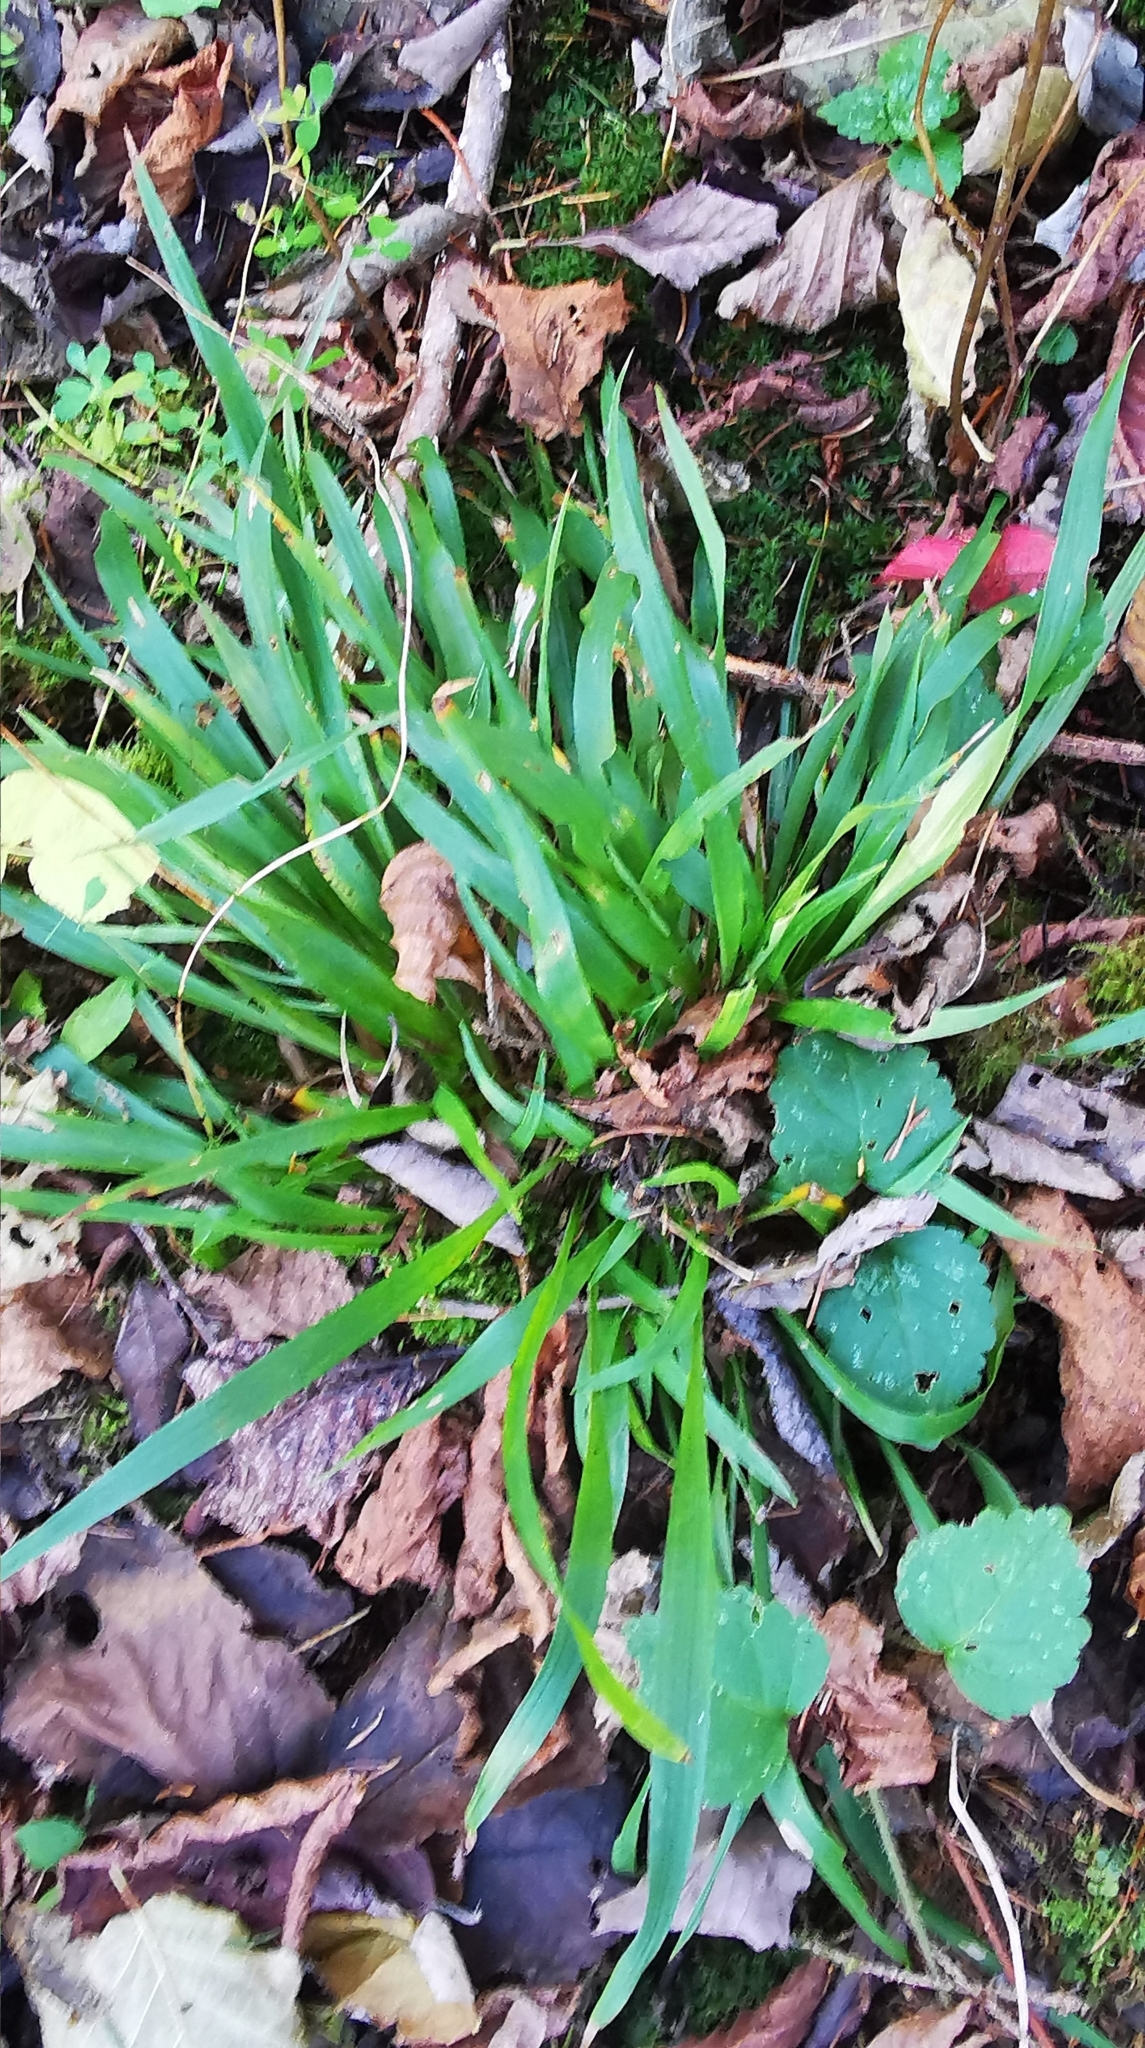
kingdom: Plantae
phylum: Tracheophyta
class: Liliopsida
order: Poales
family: Juncaceae
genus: Luzula
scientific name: Luzula pilosa
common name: Hairy wood-rush
